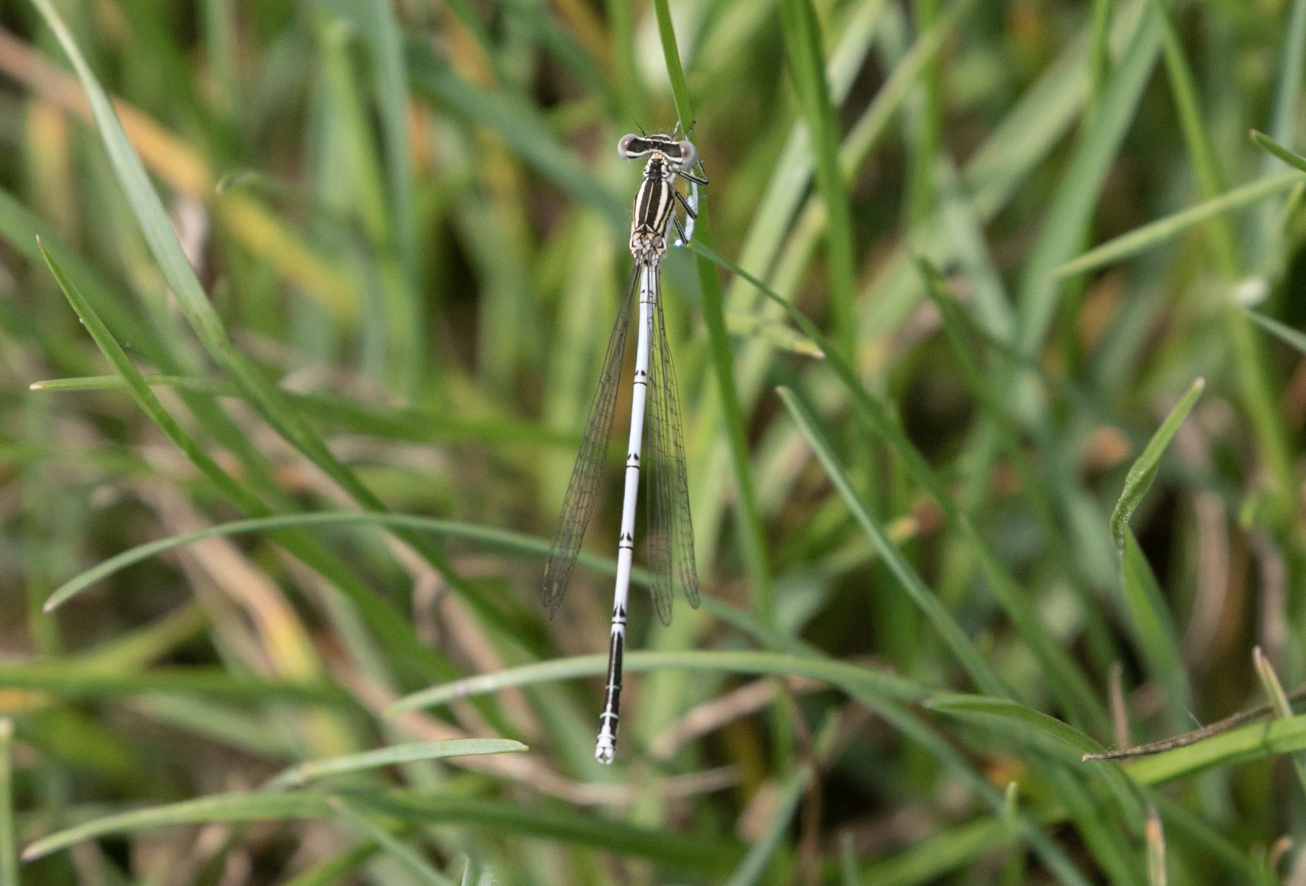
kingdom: Animalia
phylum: Arthropoda
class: Insecta
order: Odonata
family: Platycnemididae
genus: Platycnemis
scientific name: Platycnemis pennipes
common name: White-legged damselfly
